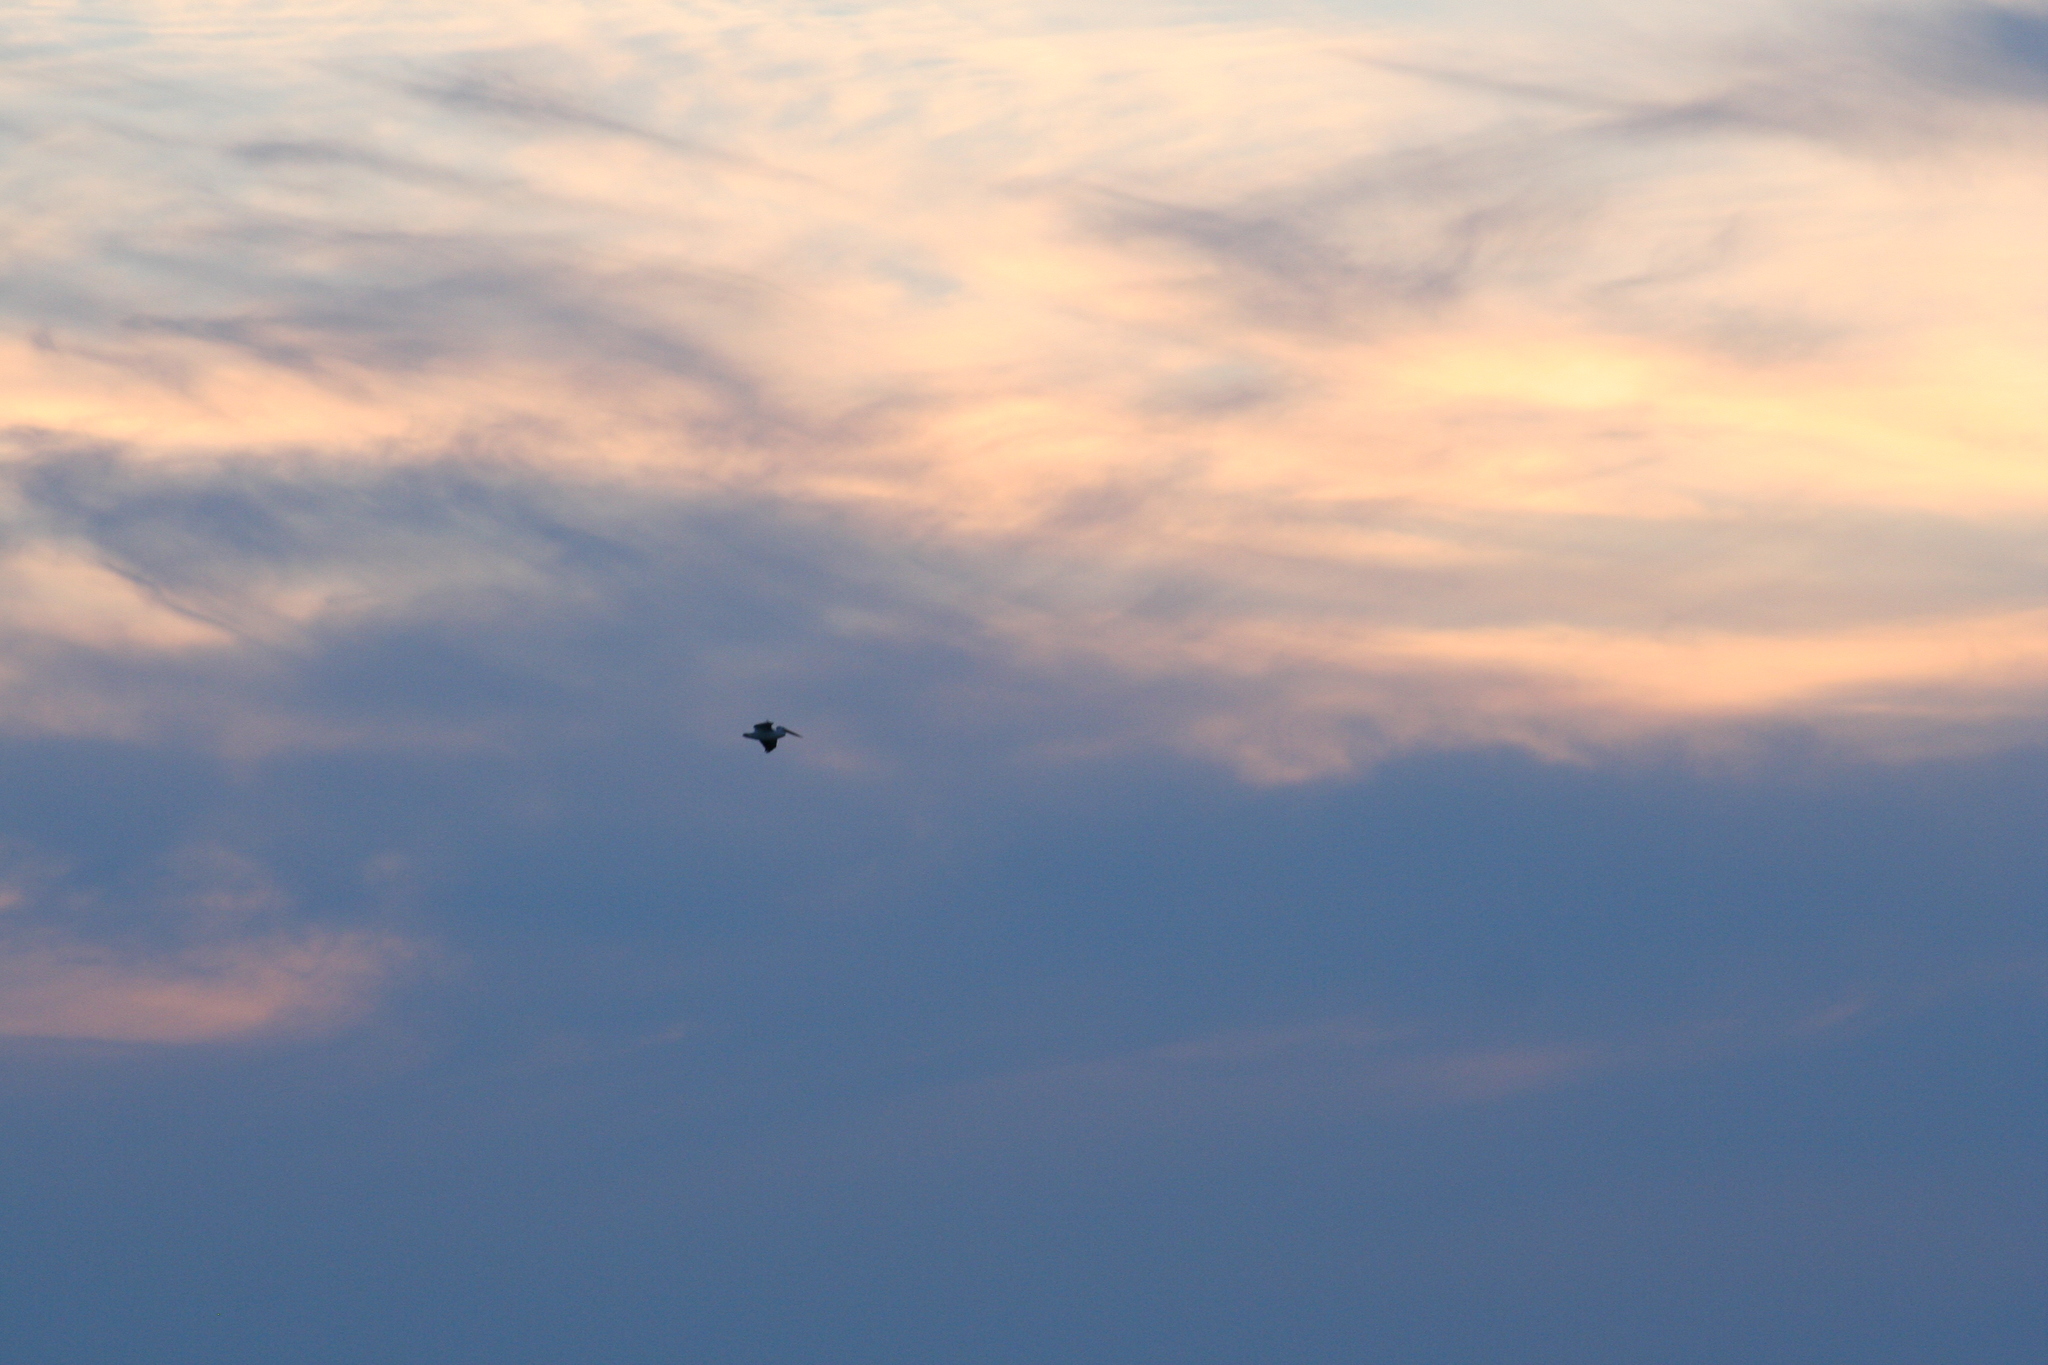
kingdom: Animalia
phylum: Chordata
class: Aves
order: Pelecaniformes
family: Pelecanidae
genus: Pelecanus
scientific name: Pelecanus erythrorhynchos
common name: American white pelican
